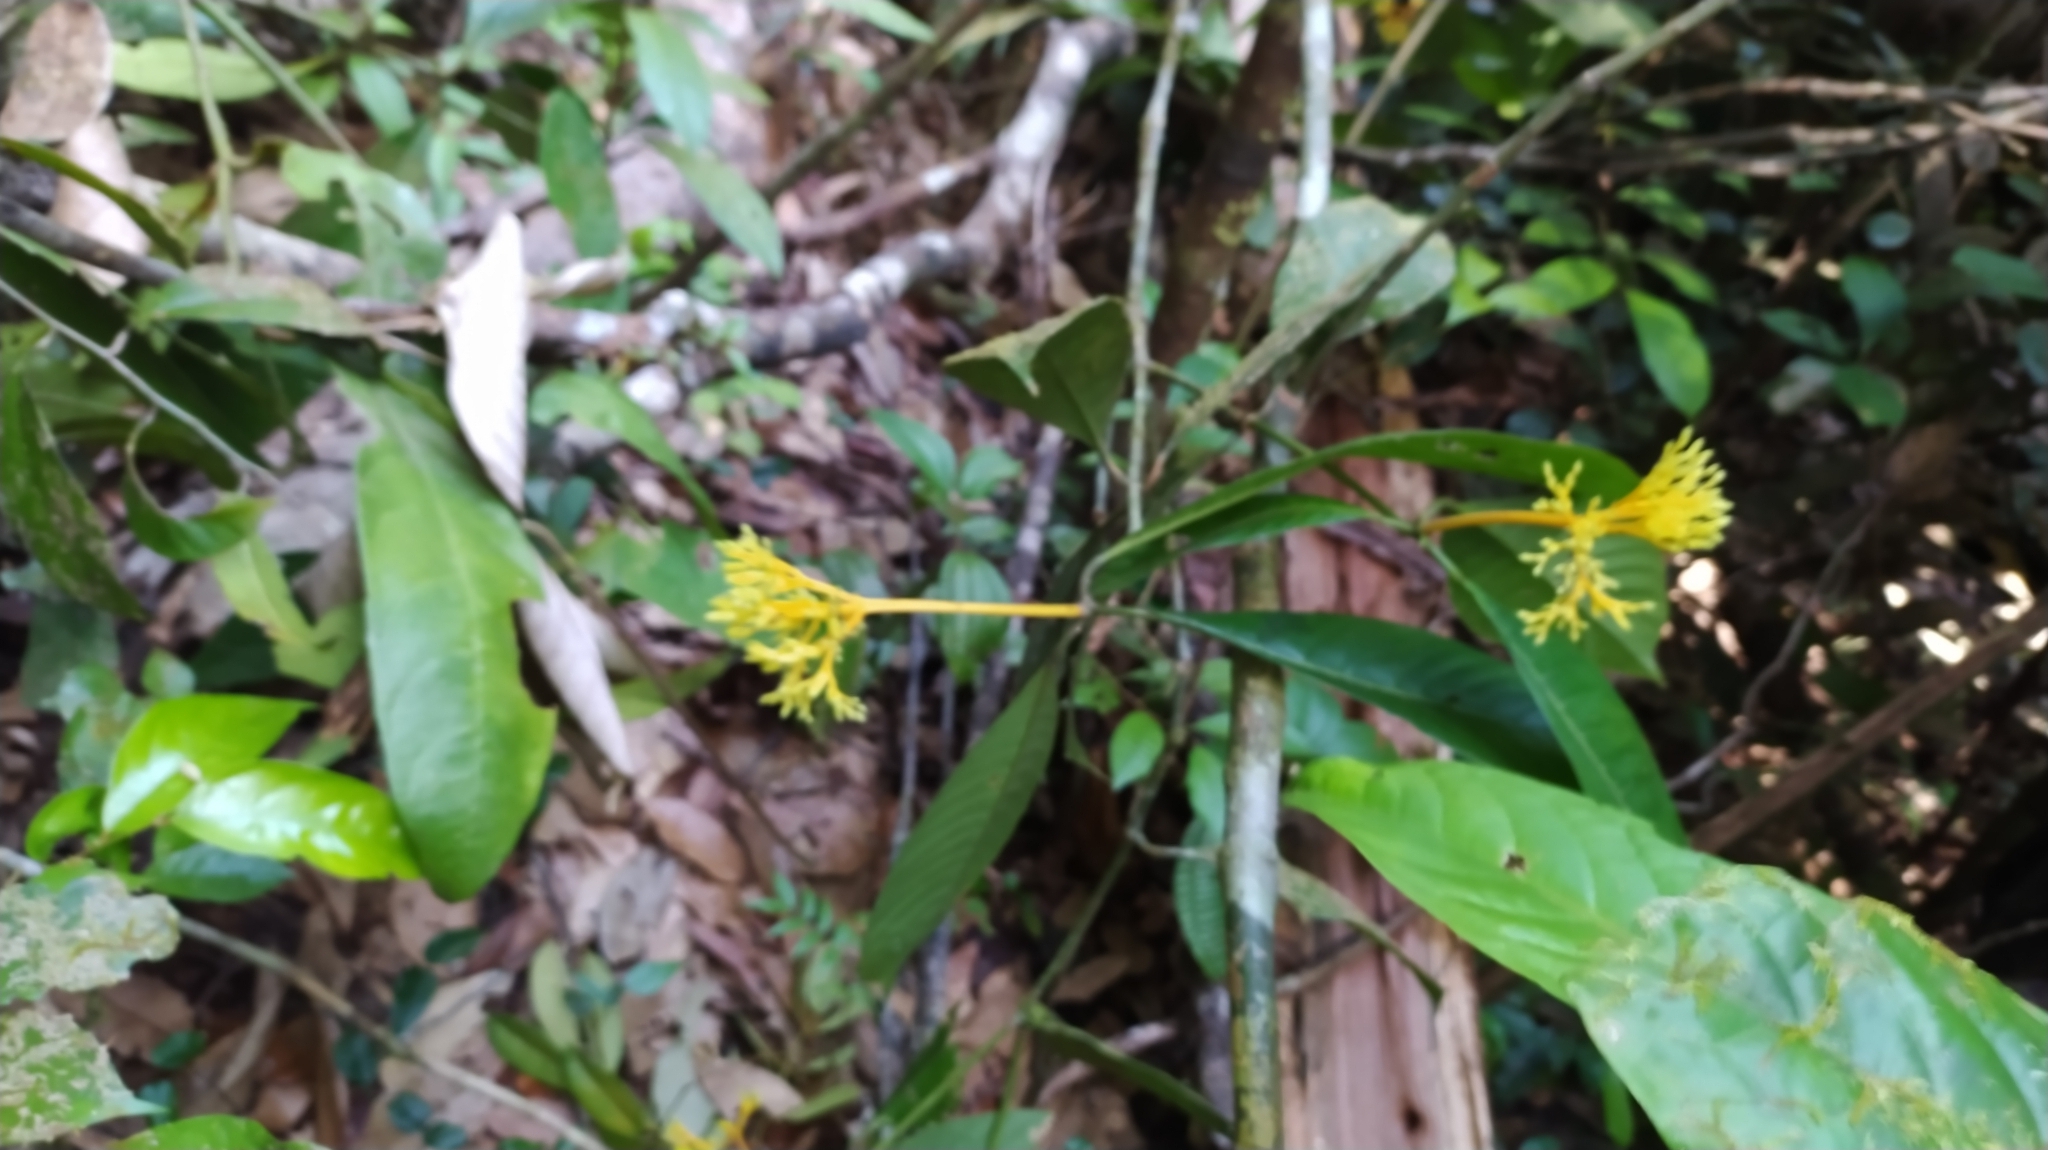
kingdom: Plantae
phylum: Tracheophyta
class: Magnoliopsida
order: Gentianales
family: Rubiaceae
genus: Palicourea
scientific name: Palicourea quadrifolia
